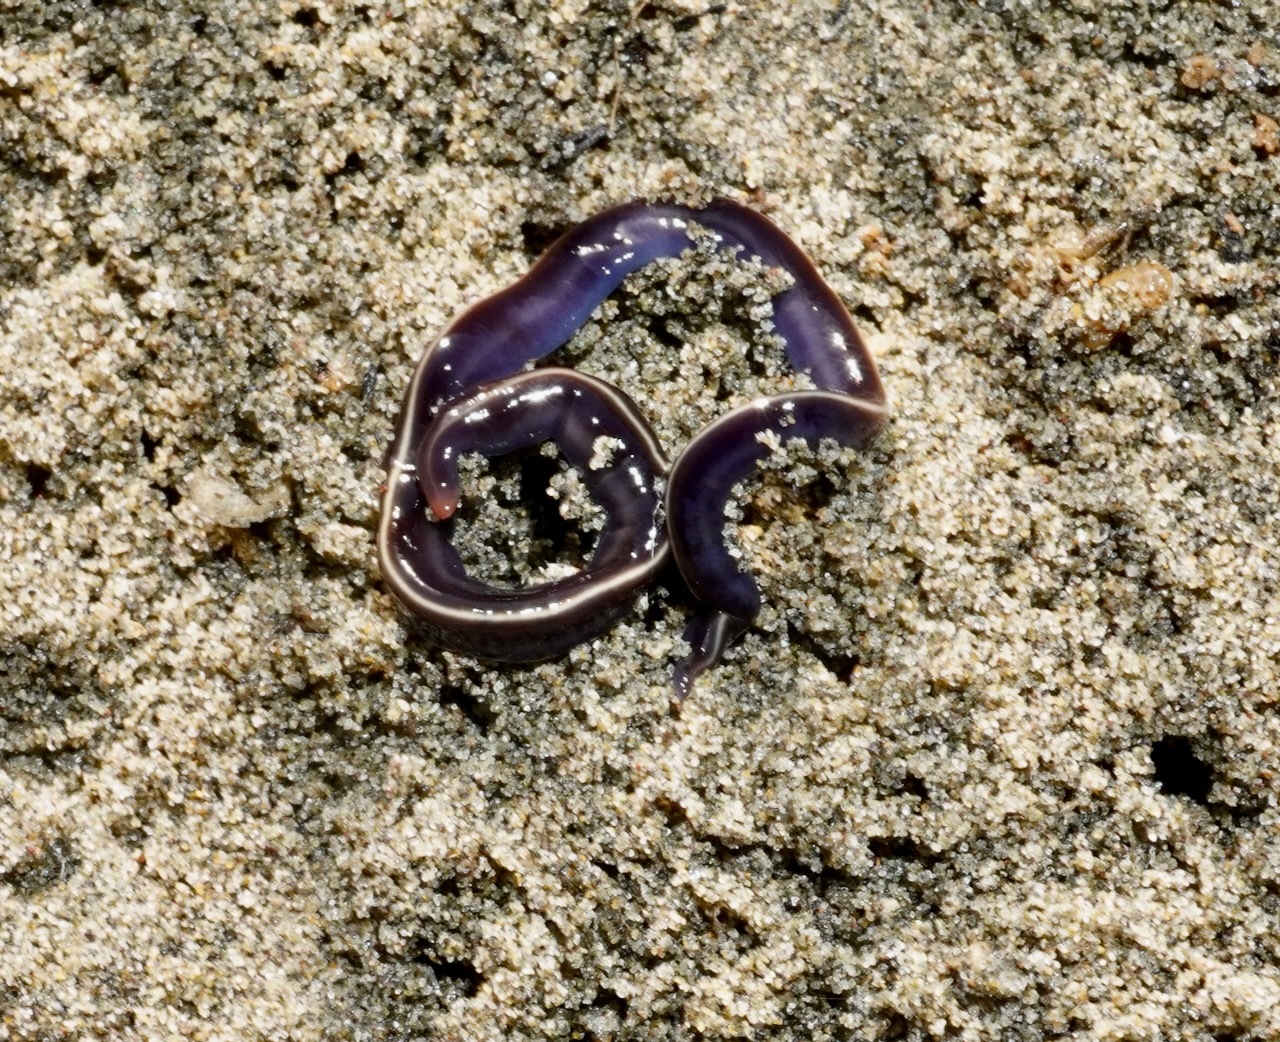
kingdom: Animalia
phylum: Platyhelminthes
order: Tricladida
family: Geoplanidae
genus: Caenoplana
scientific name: Caenoplana coerulea
